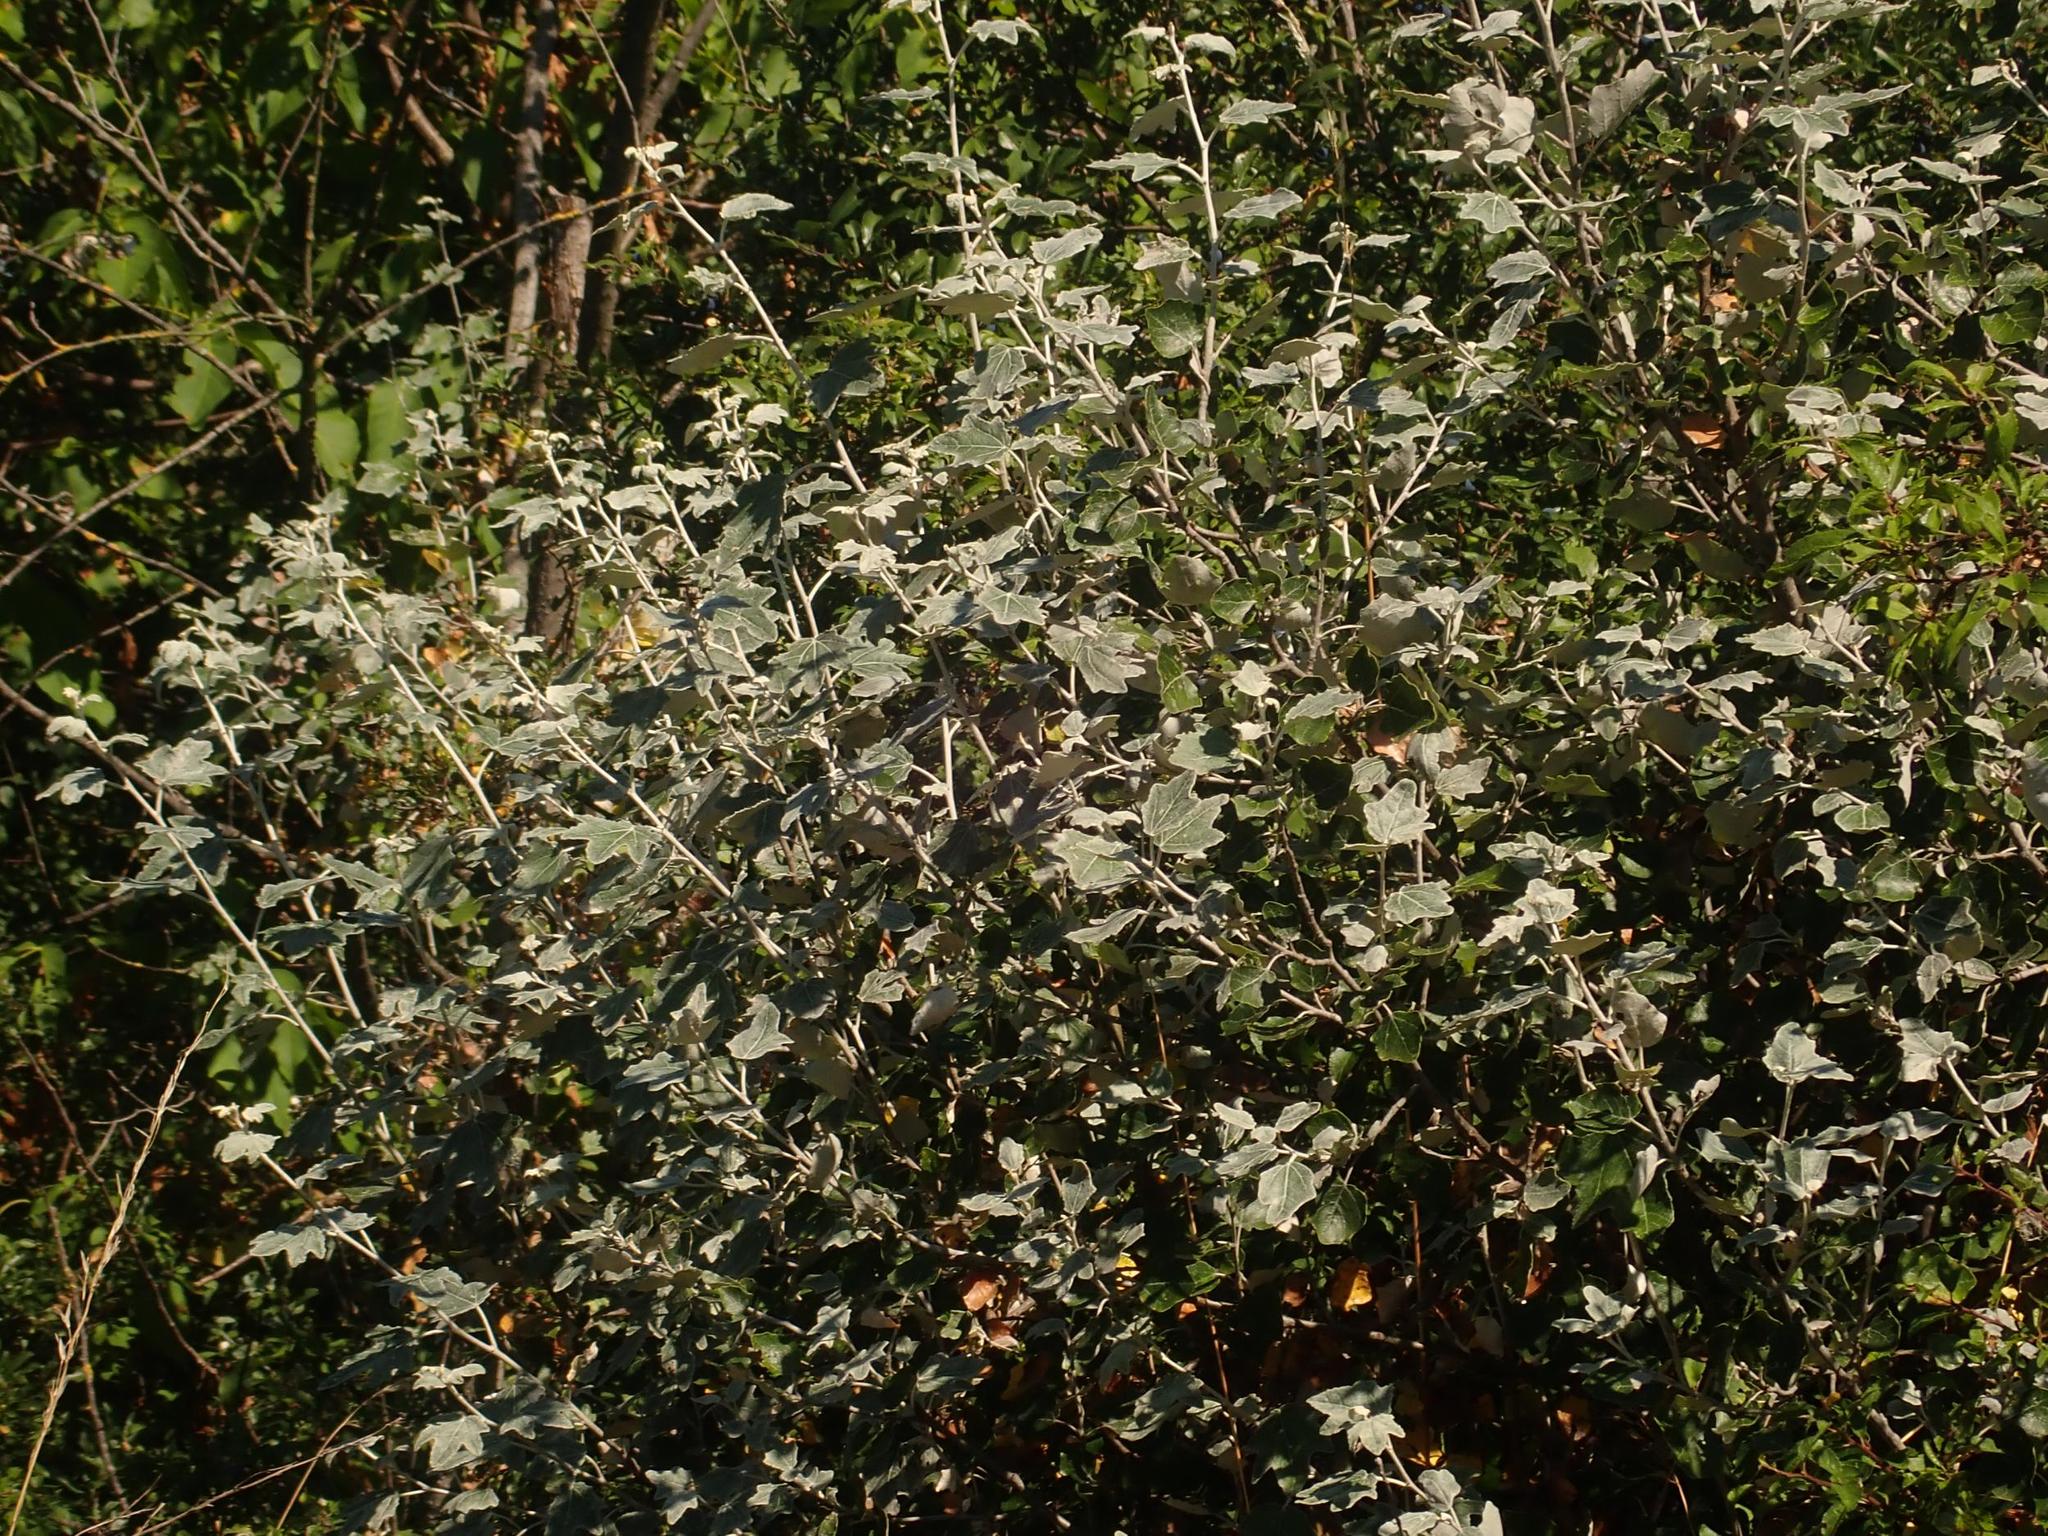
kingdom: Plantae
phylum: Tracheophyta
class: Magnoliopsida
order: Malpighiales
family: Salicaceae
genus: Populus
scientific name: Populus alba
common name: White poplar
